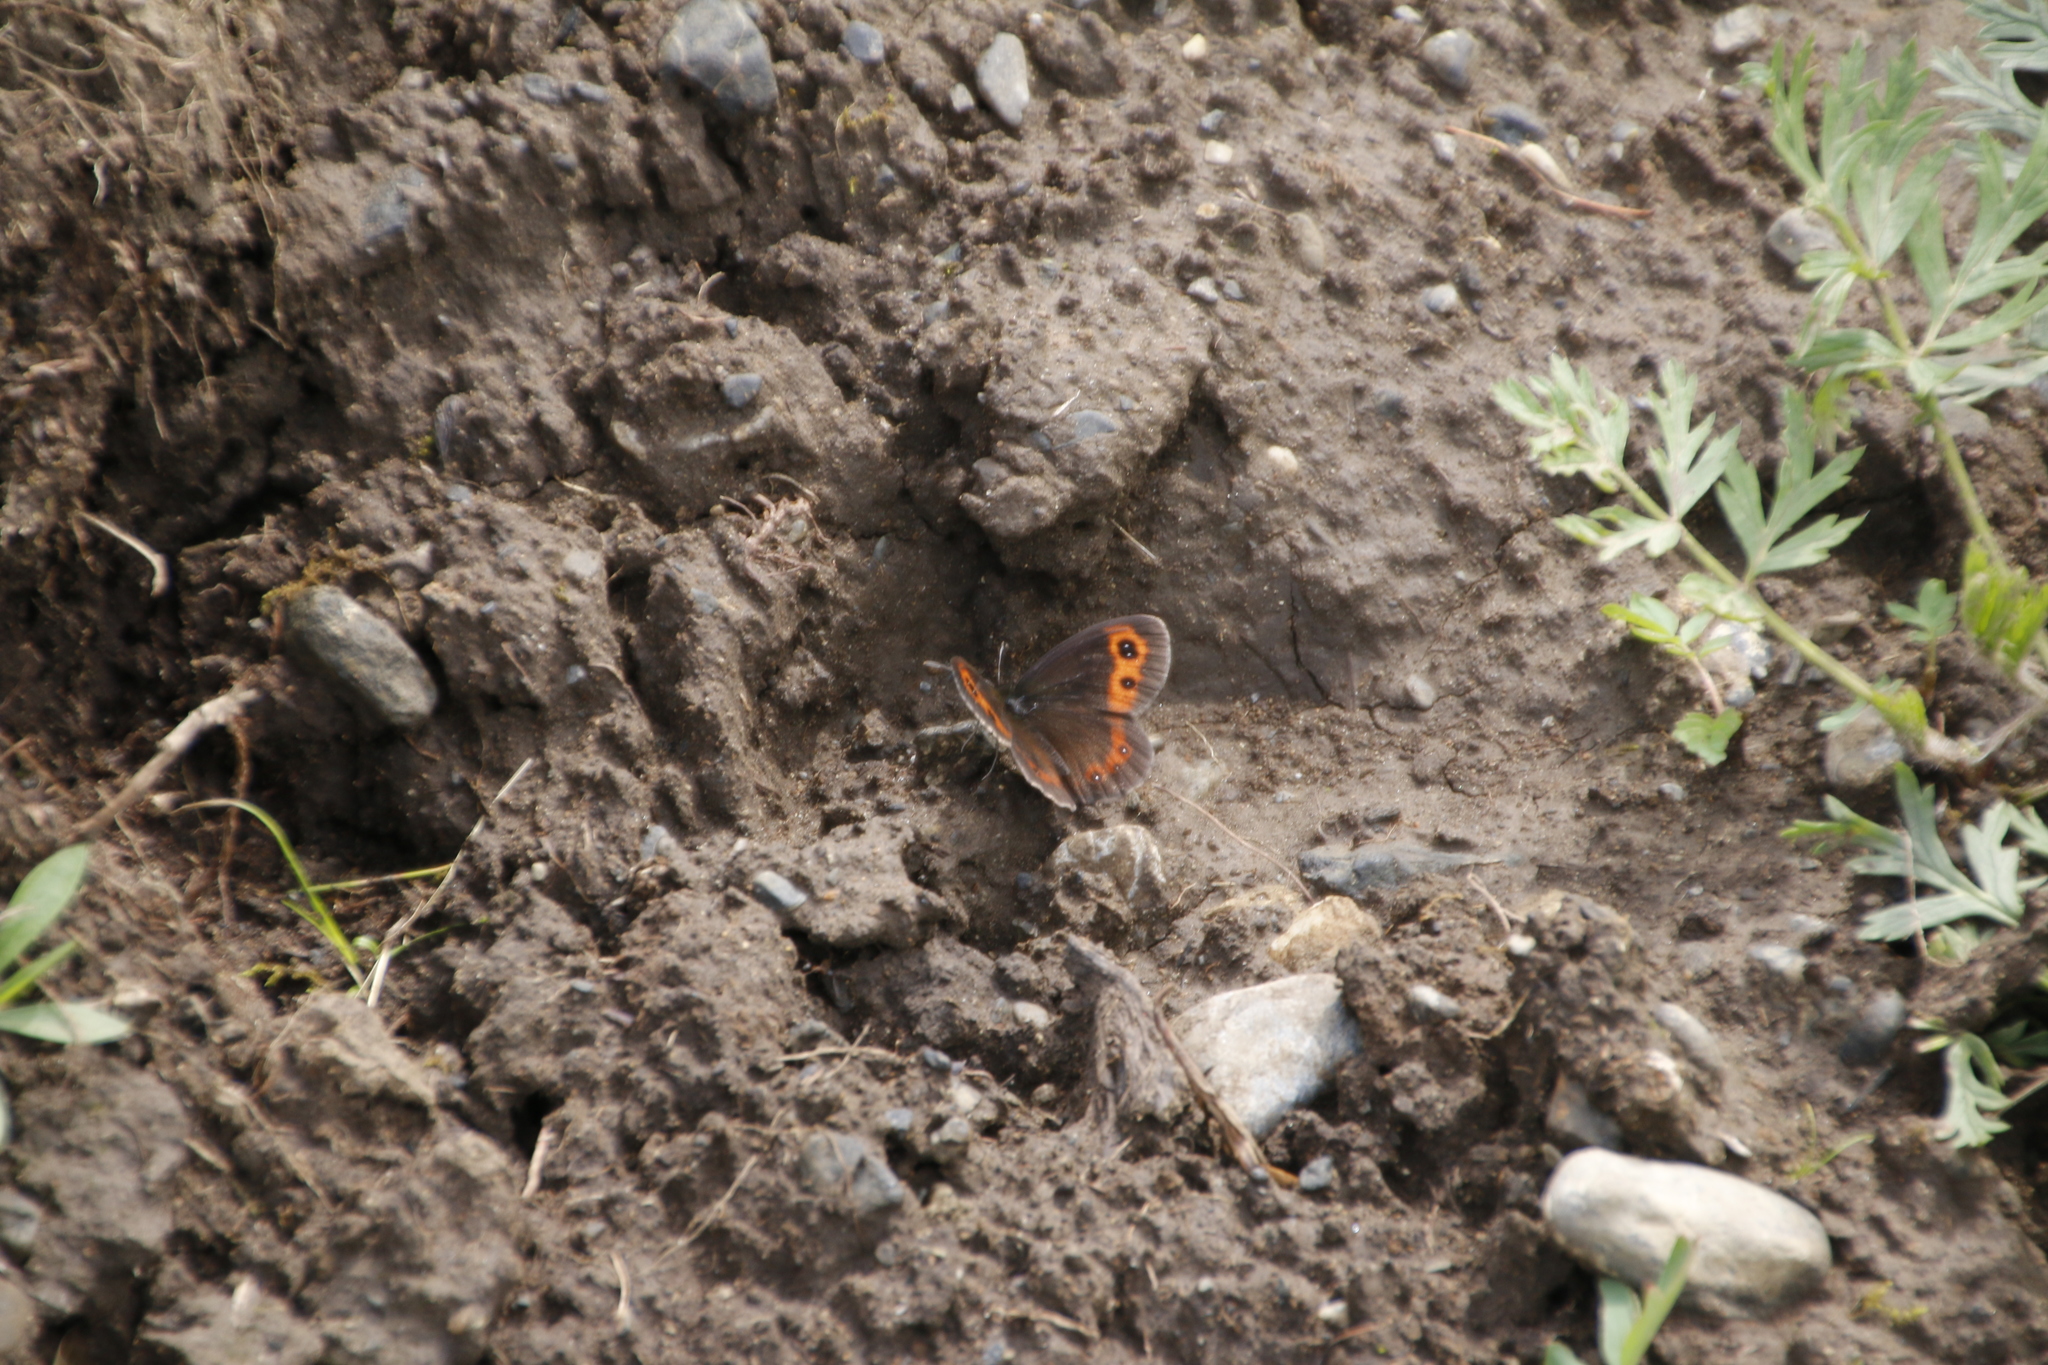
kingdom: Animalia
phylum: Arthropoda
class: Insecta
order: Lepidoptera
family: Nymphalidae
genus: Erebia
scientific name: Erebia neriene
